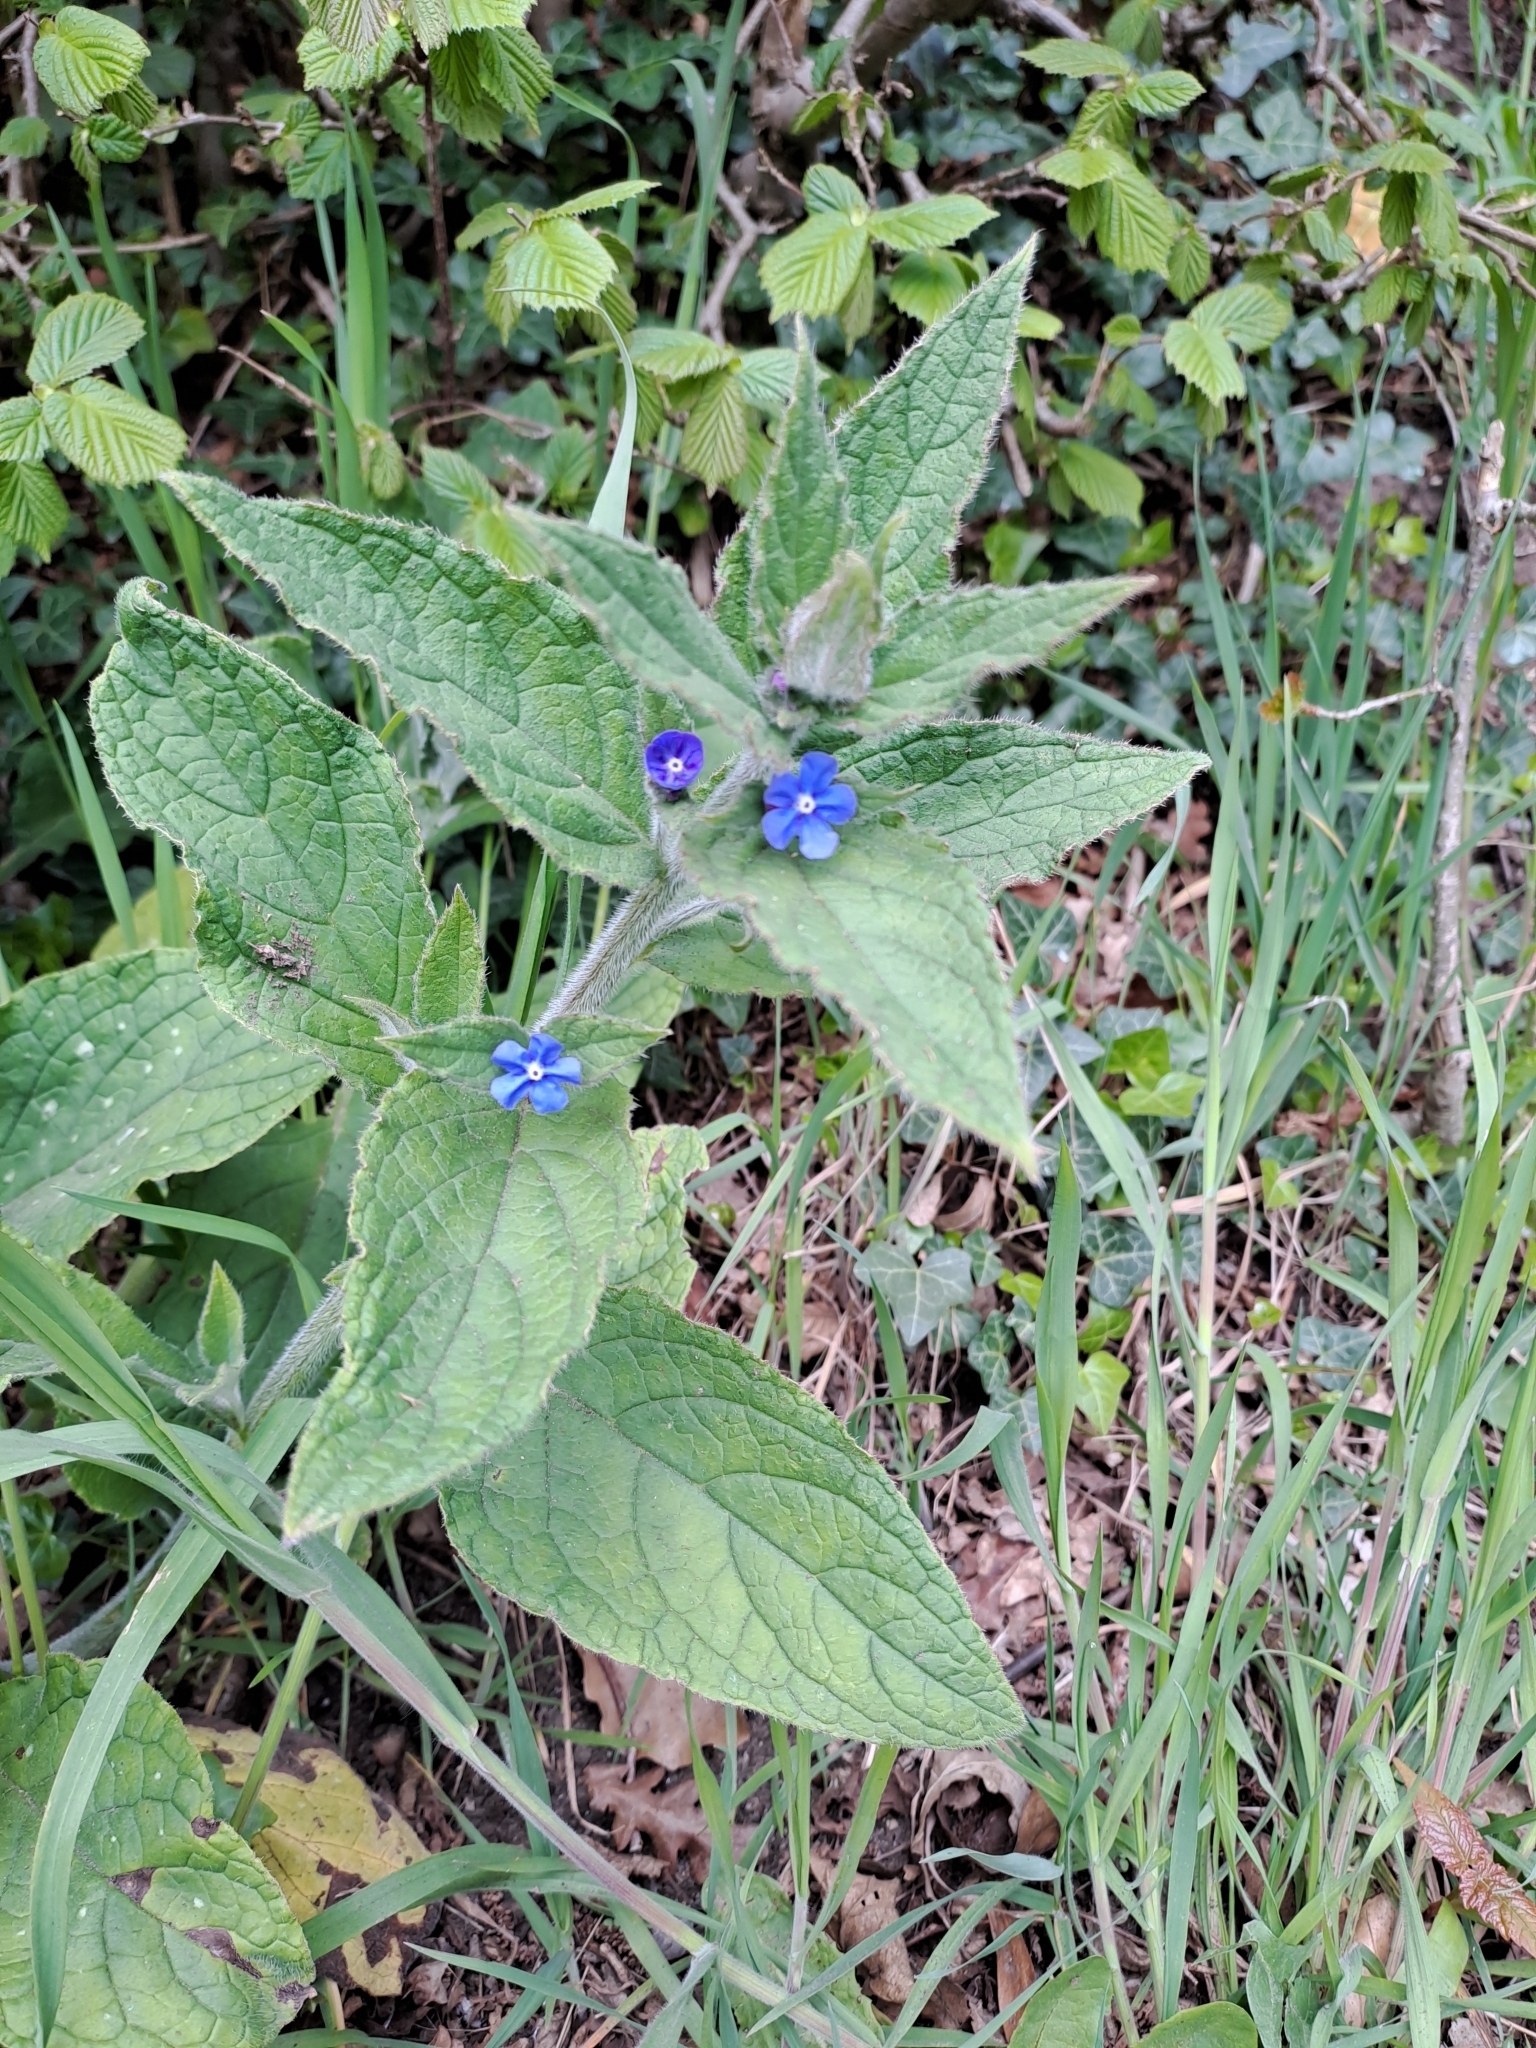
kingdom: Plantae
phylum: Tracheophyta
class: Magnoliopsida
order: Boraginales
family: Boraginaceae
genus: Pentaglottis
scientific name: Pentaglottis sempervirens
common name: Green alkanet
